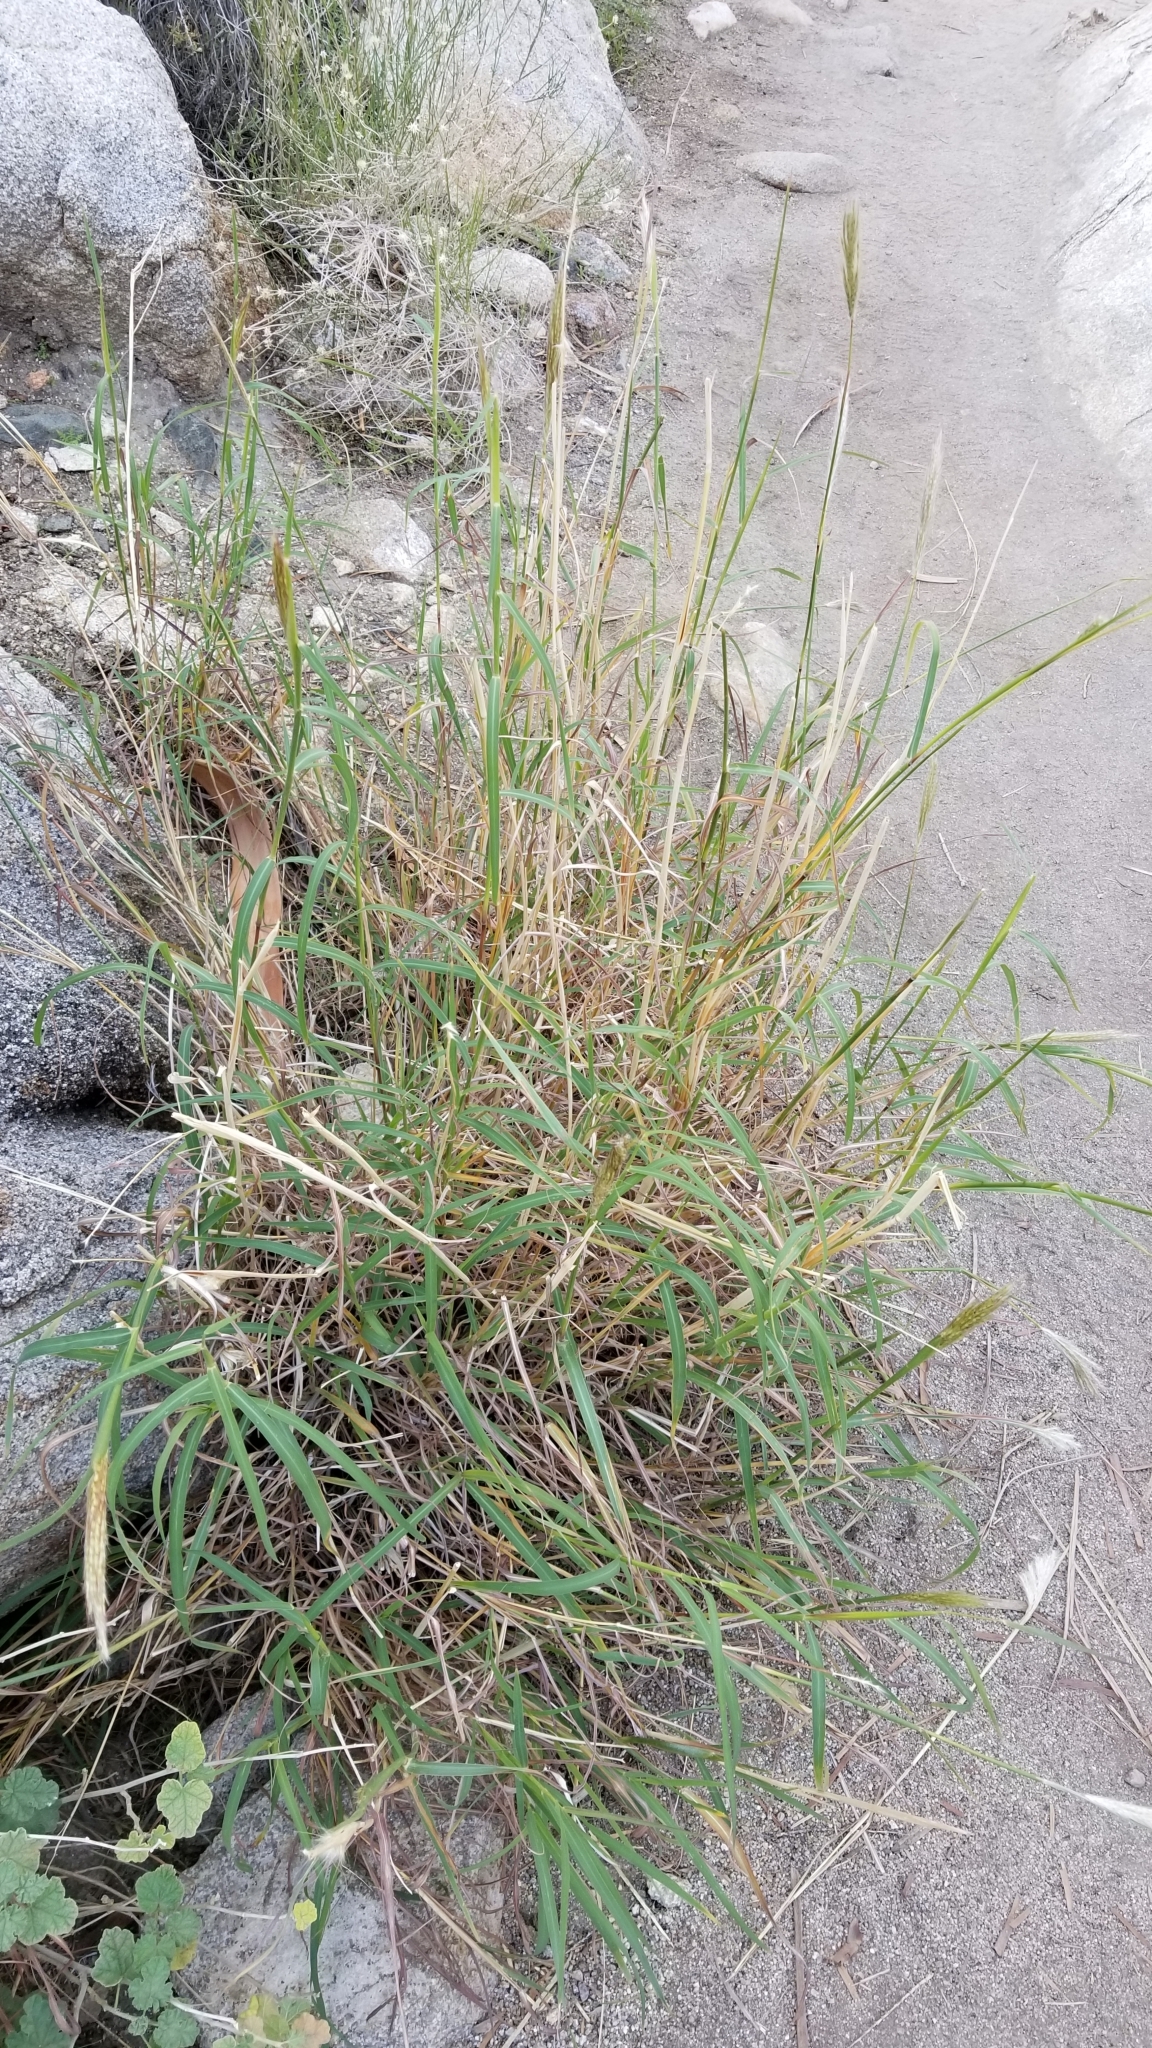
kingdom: Plantae
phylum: Tracheophyta
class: Liliopsida
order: Poales
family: Poaceae
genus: Hilaria
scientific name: Hilaria rigida
